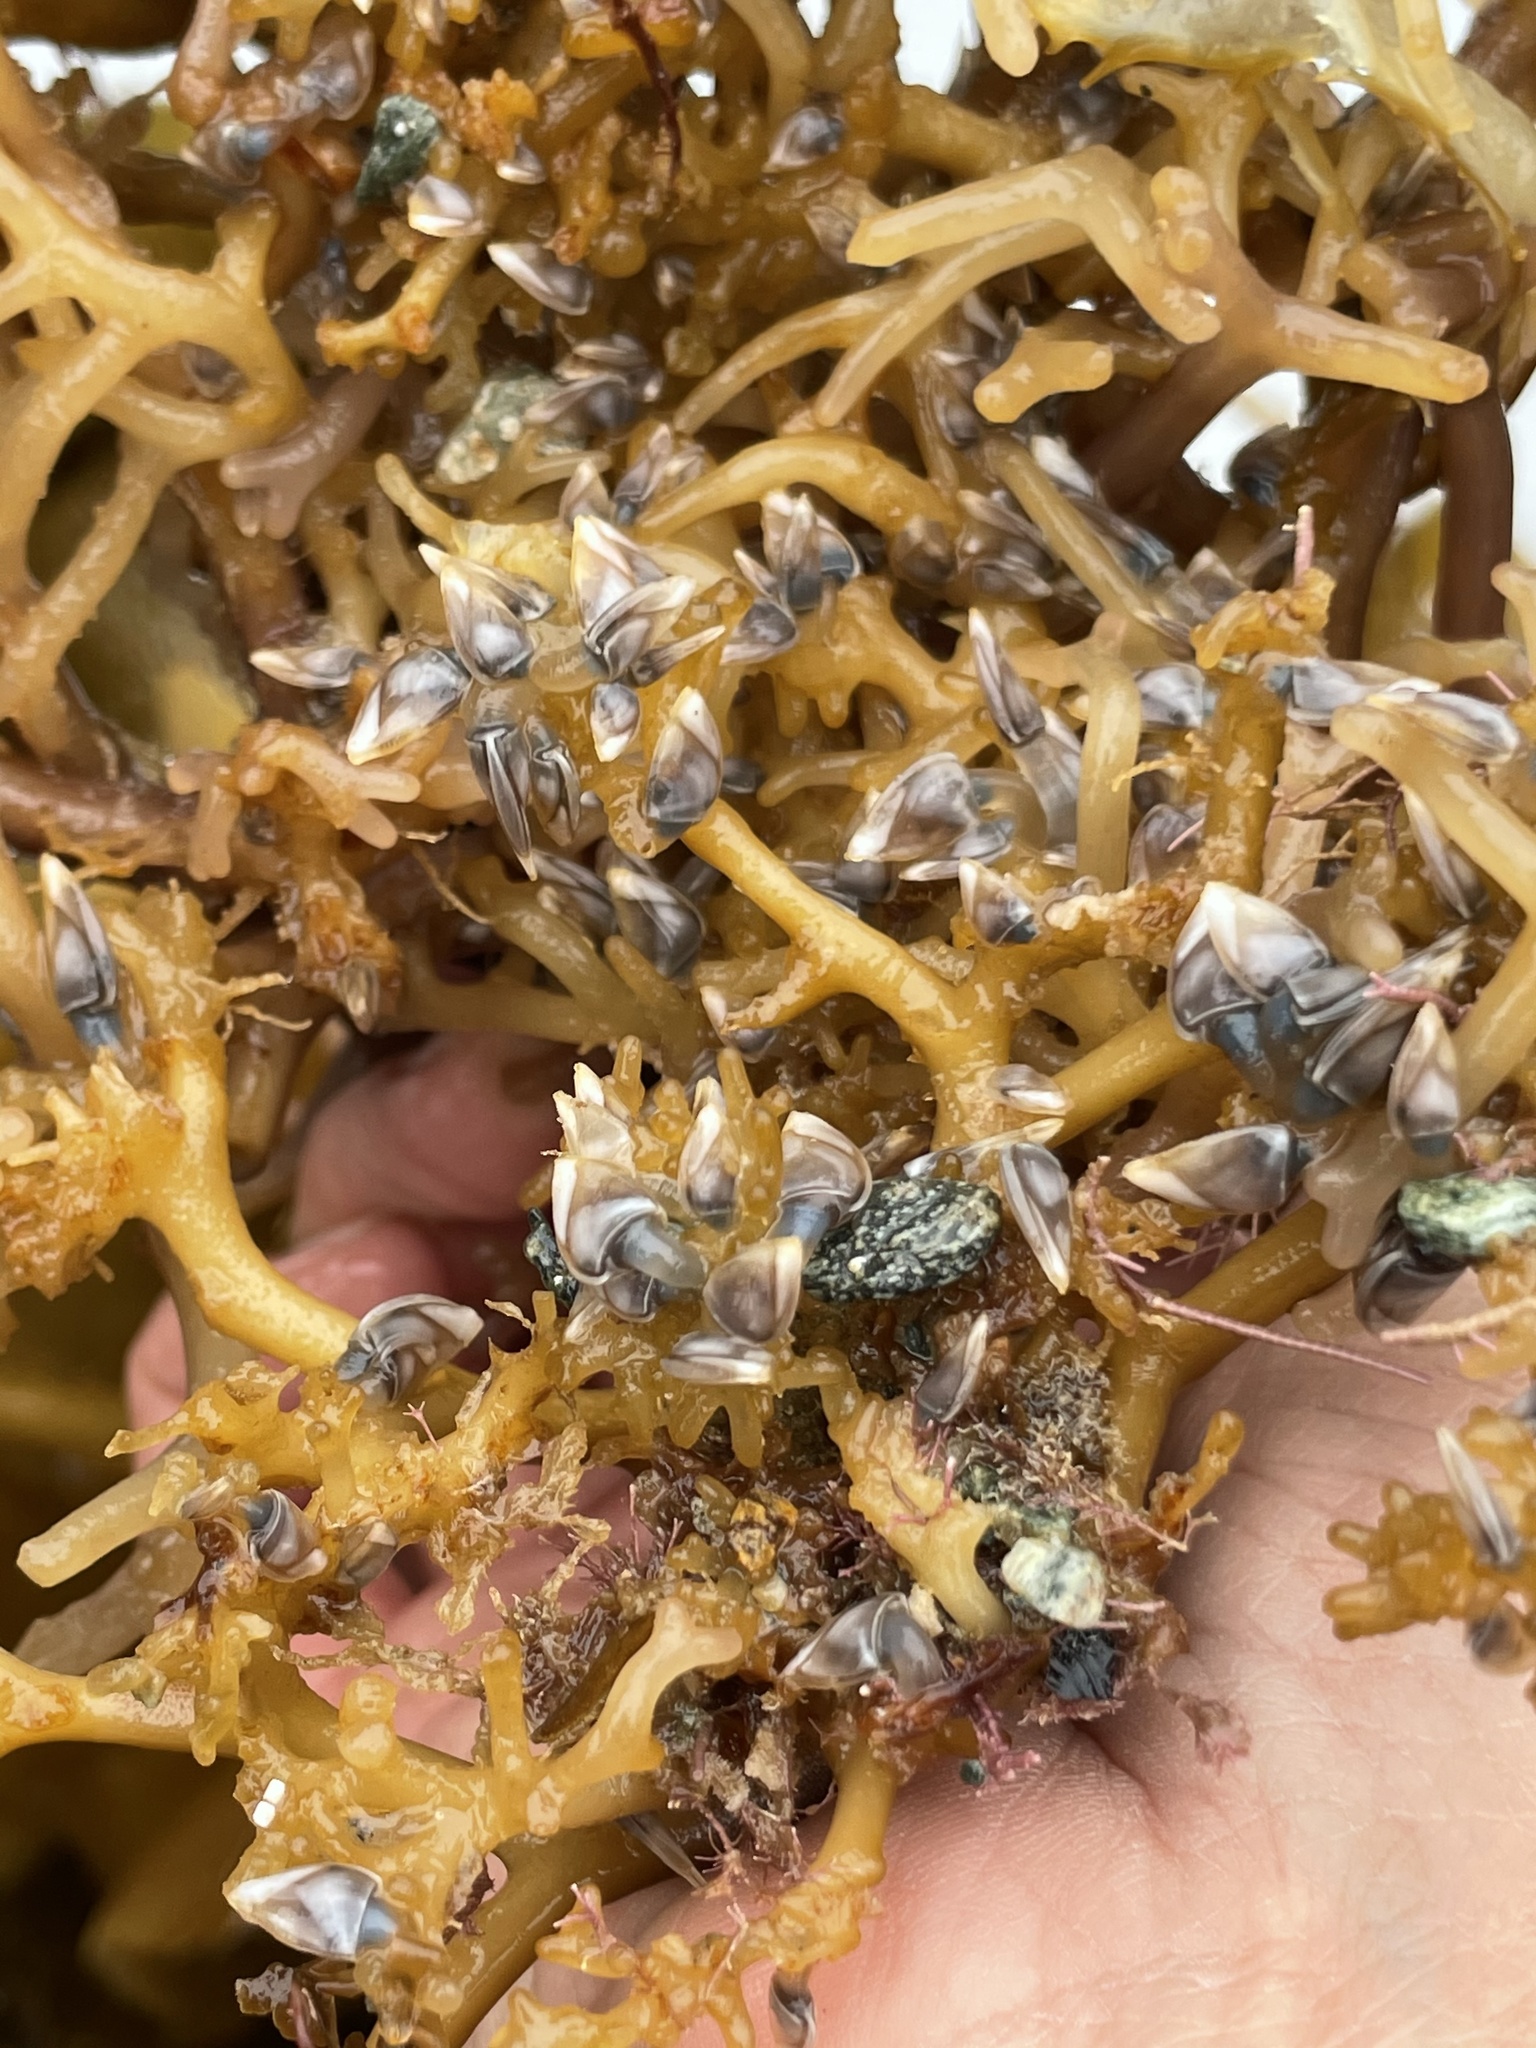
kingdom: Animalia
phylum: Arthropoda
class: Maxillopoda
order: Pedunculata
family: Lepadidae
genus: Lepas
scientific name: Lepas pacifica
